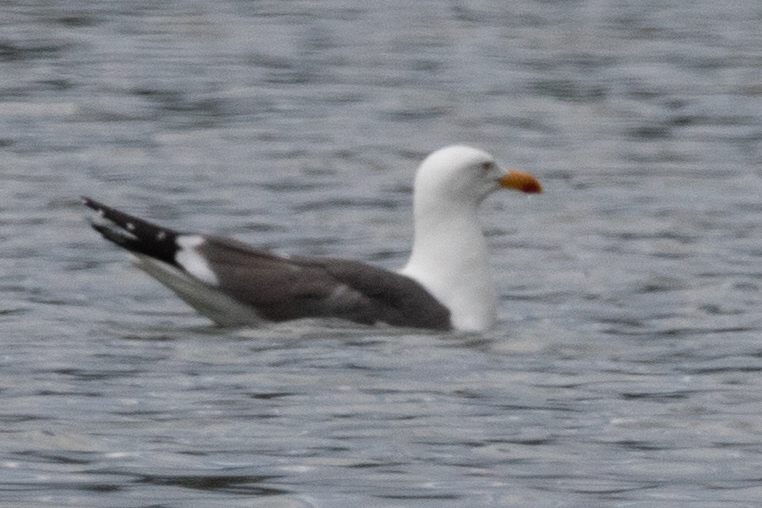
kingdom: Animalia
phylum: Chordata
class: Aves
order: Charadriiformes
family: Laridae
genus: Larus
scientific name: Larus fuscus
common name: Lesser black-backed gull
